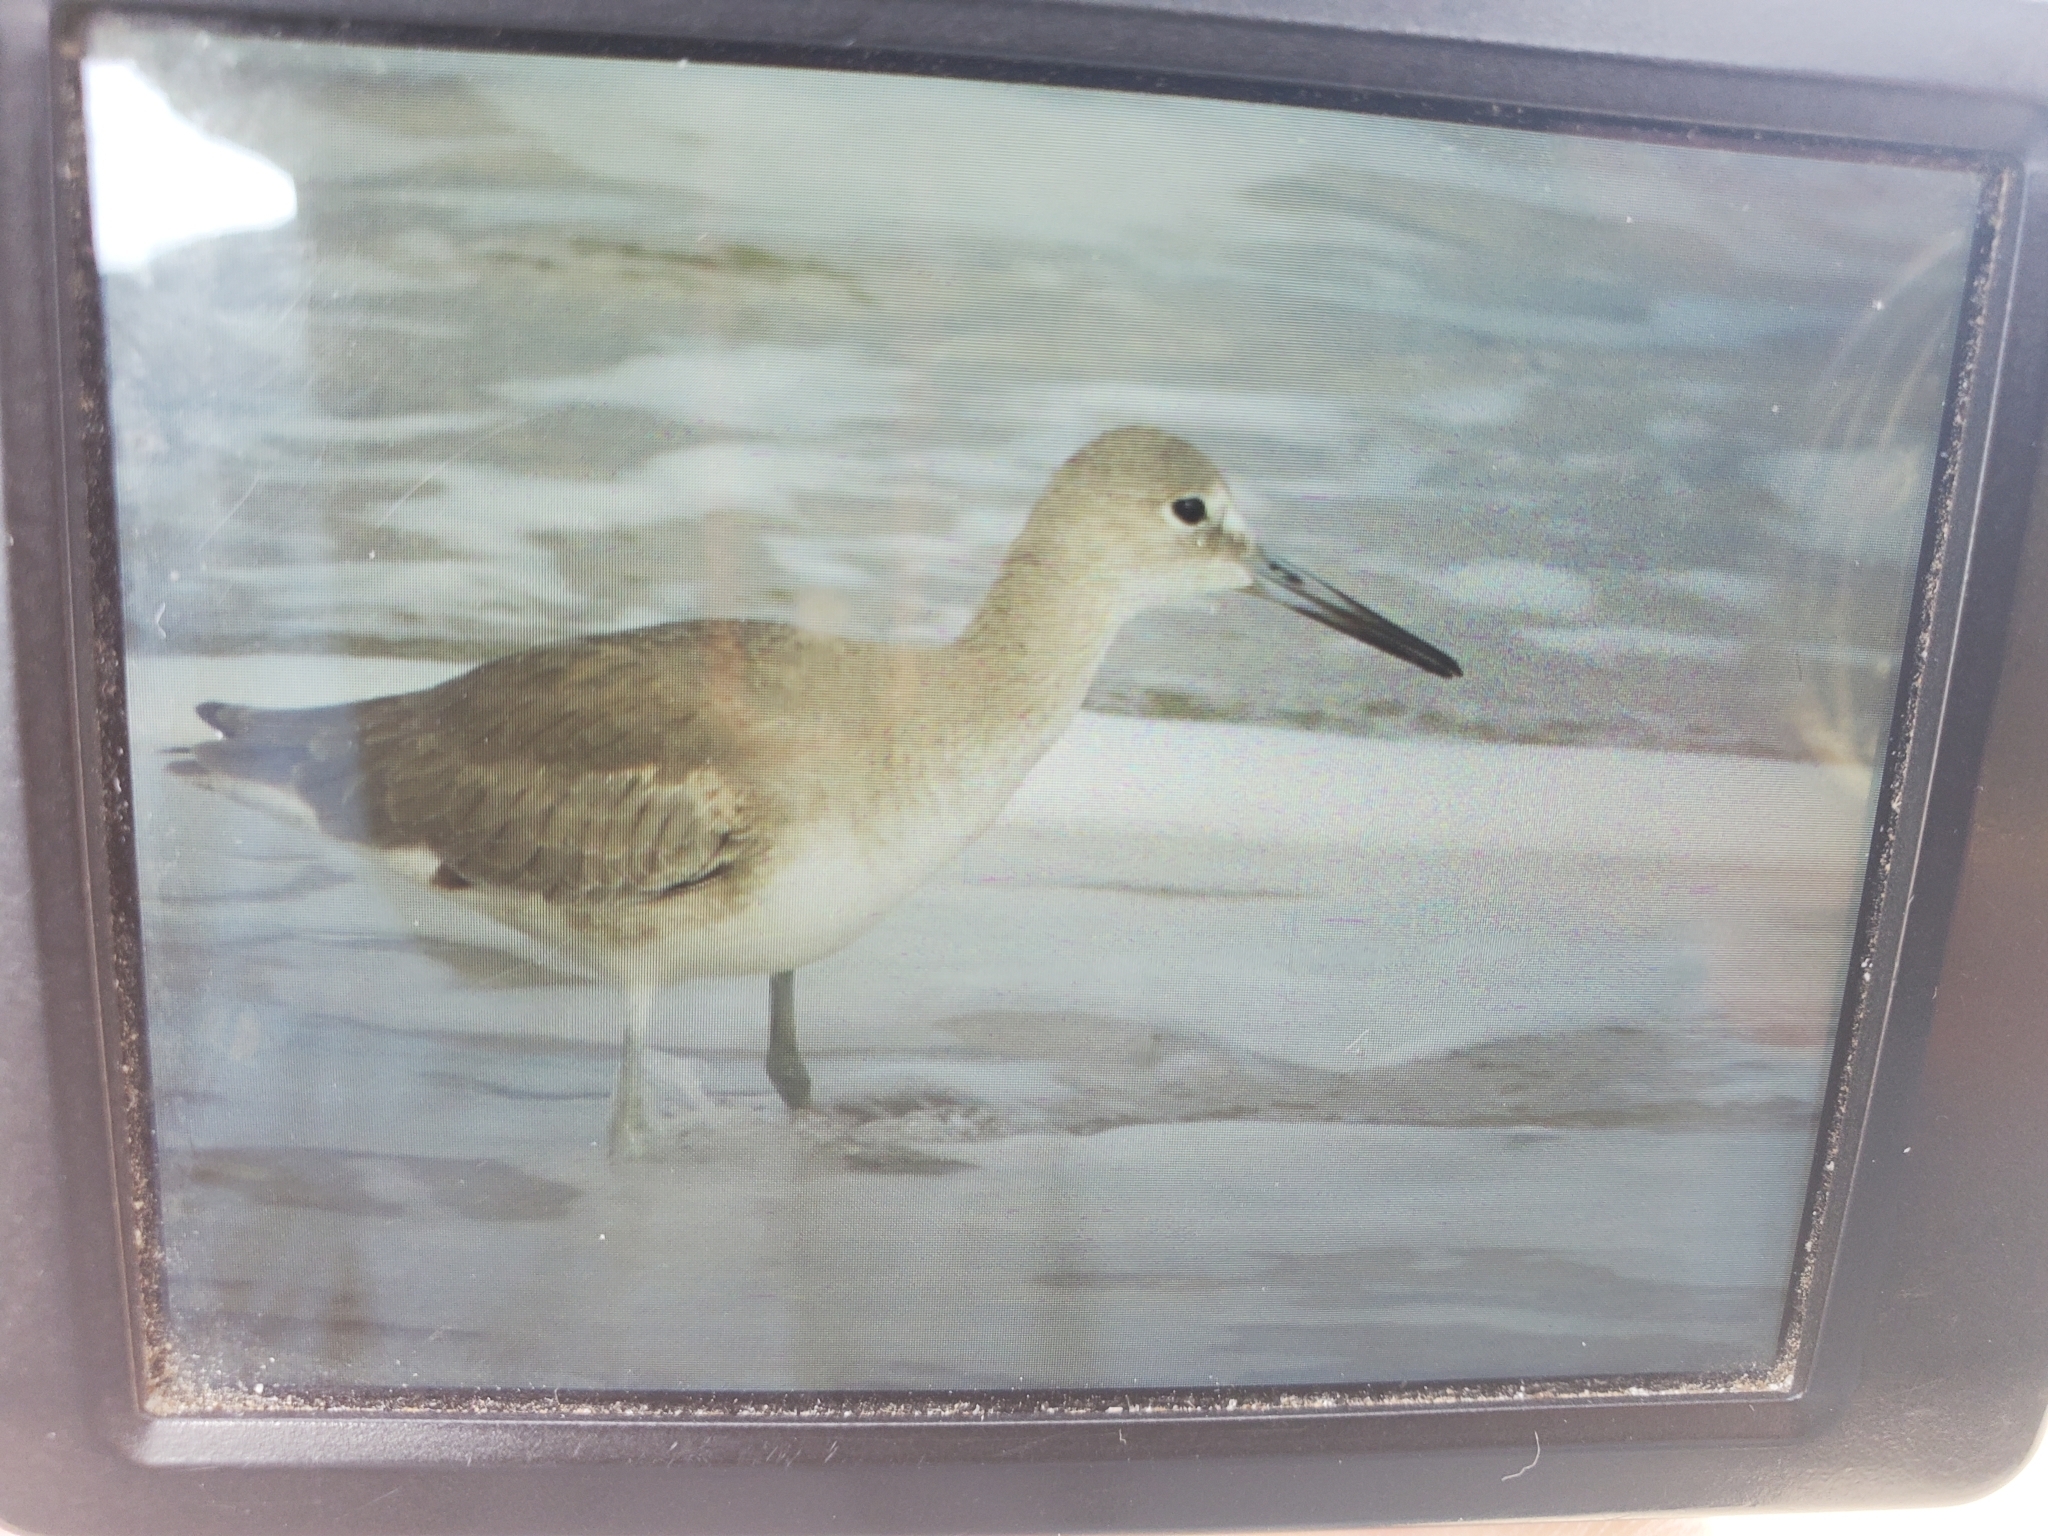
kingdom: Animalia
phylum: Chordata
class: Aves
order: Charadriiformes
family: Scolopacidae
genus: Tringa
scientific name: Tringa semipalmata
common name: Willet
